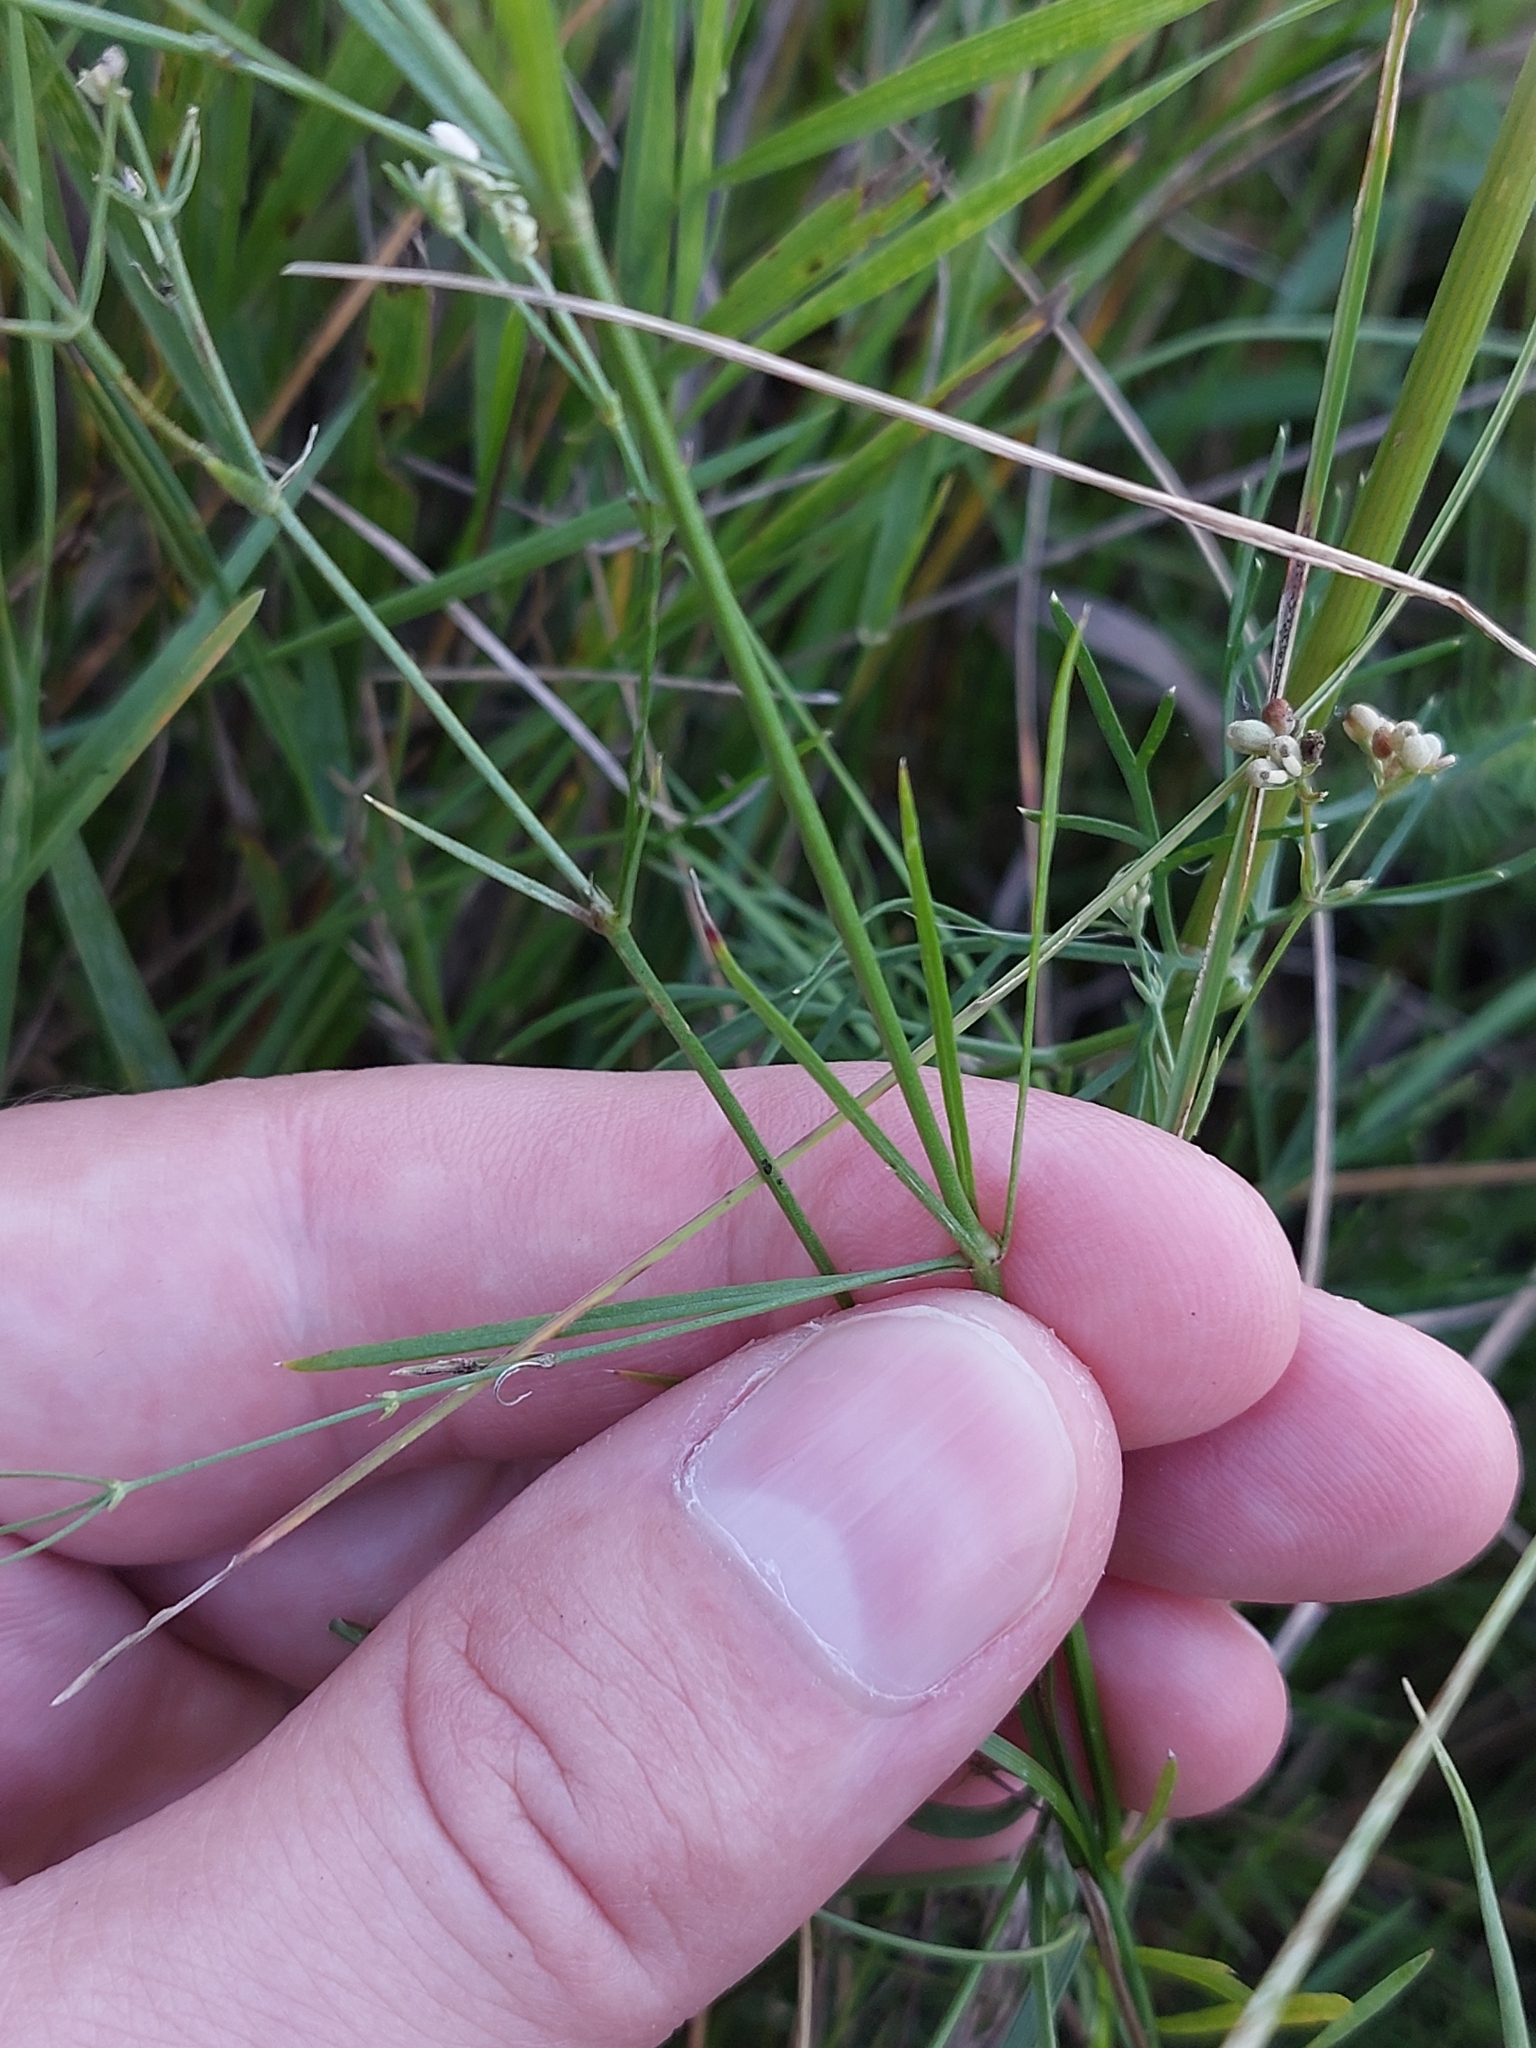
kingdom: Plantae
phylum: Tracheophyta
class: Magnoliopsida
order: Gentianales
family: Rubiaceae
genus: Cynanchica
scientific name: Cynanchica pyrenaica
